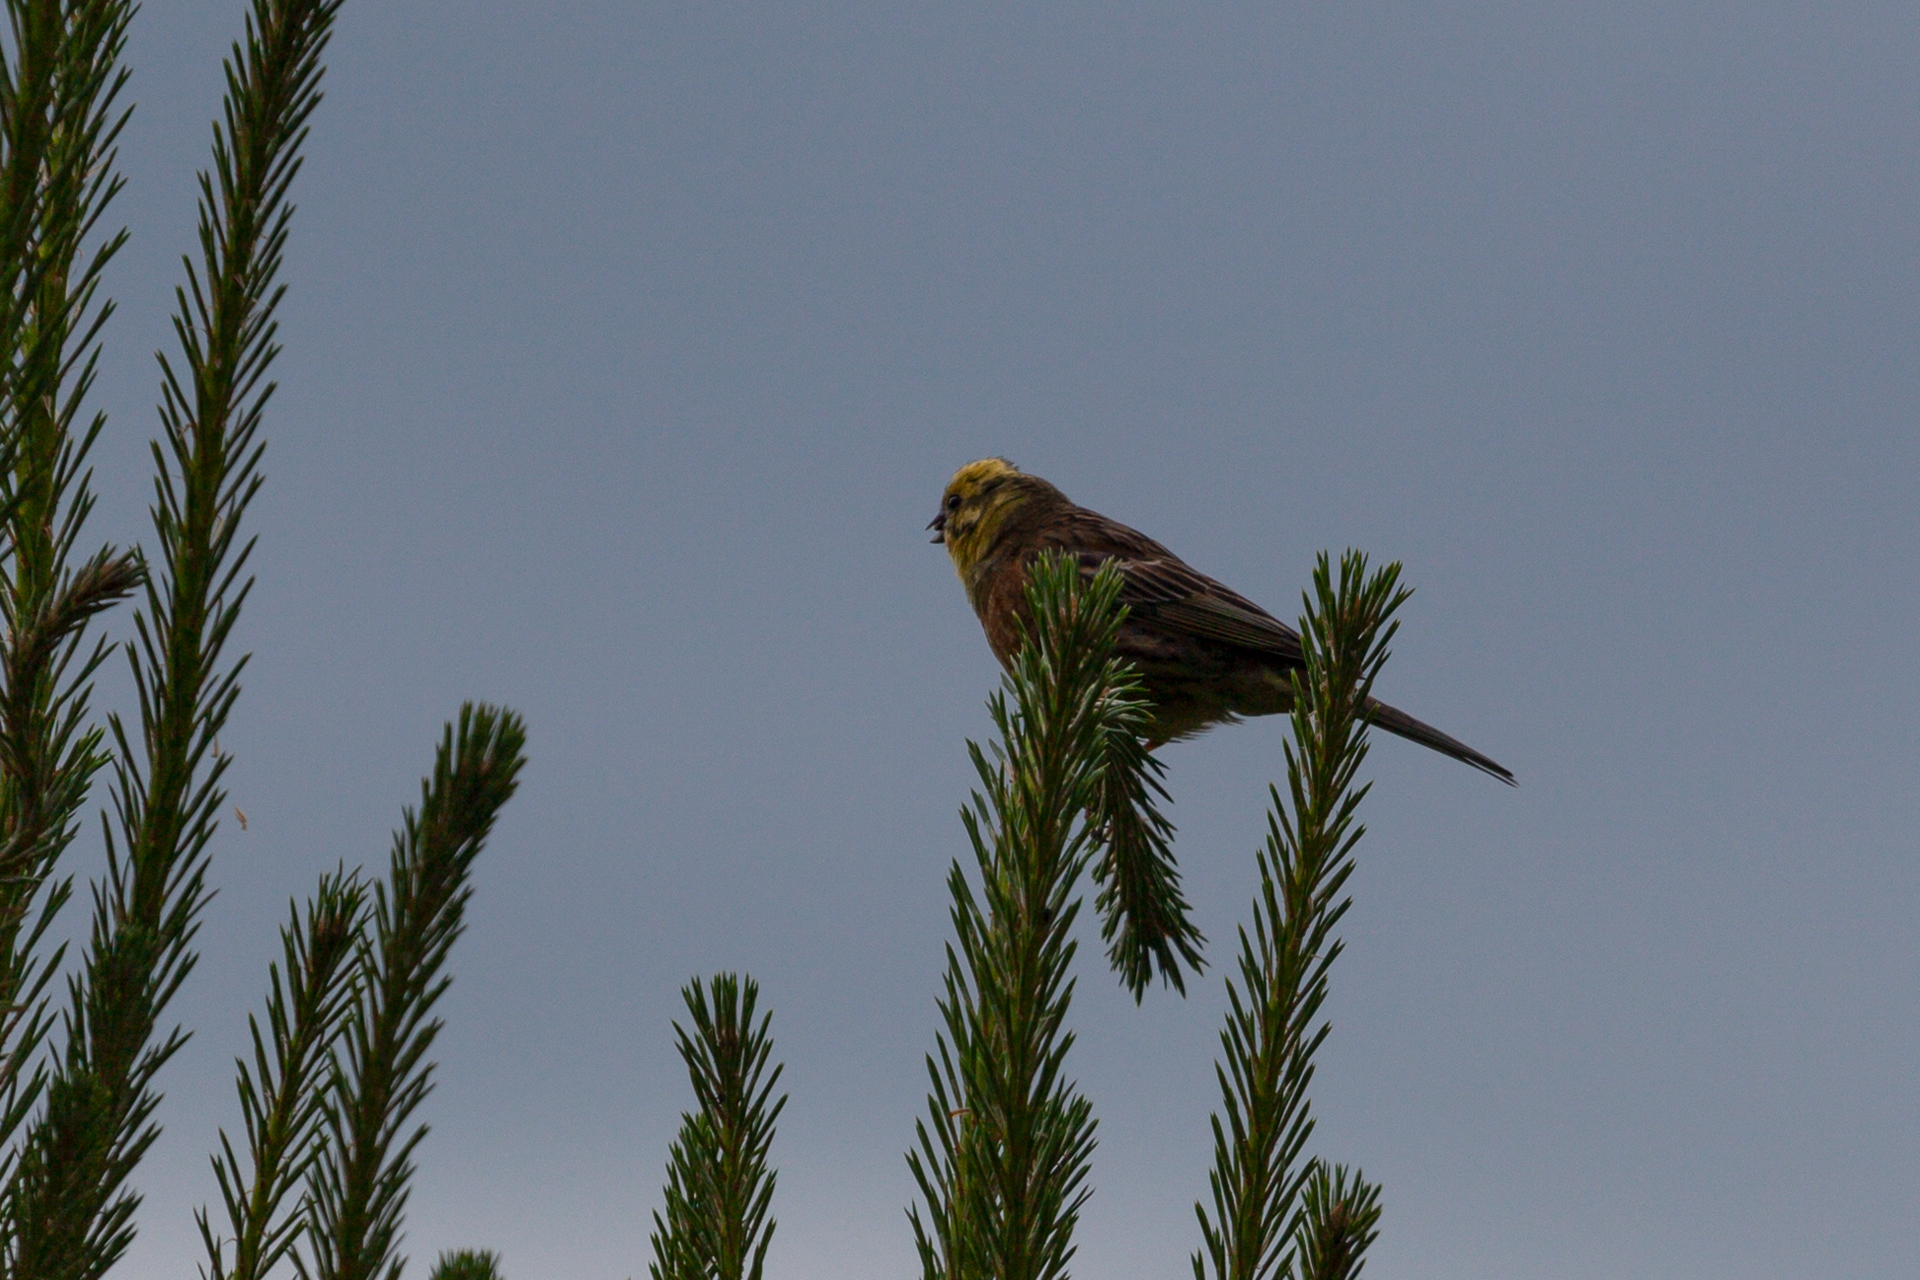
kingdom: Animalia
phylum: Chordata
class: Aves
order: Passeriformes
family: Emberizidae
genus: Emberiza
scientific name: Emberiza citrinella
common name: Yellowhammer
